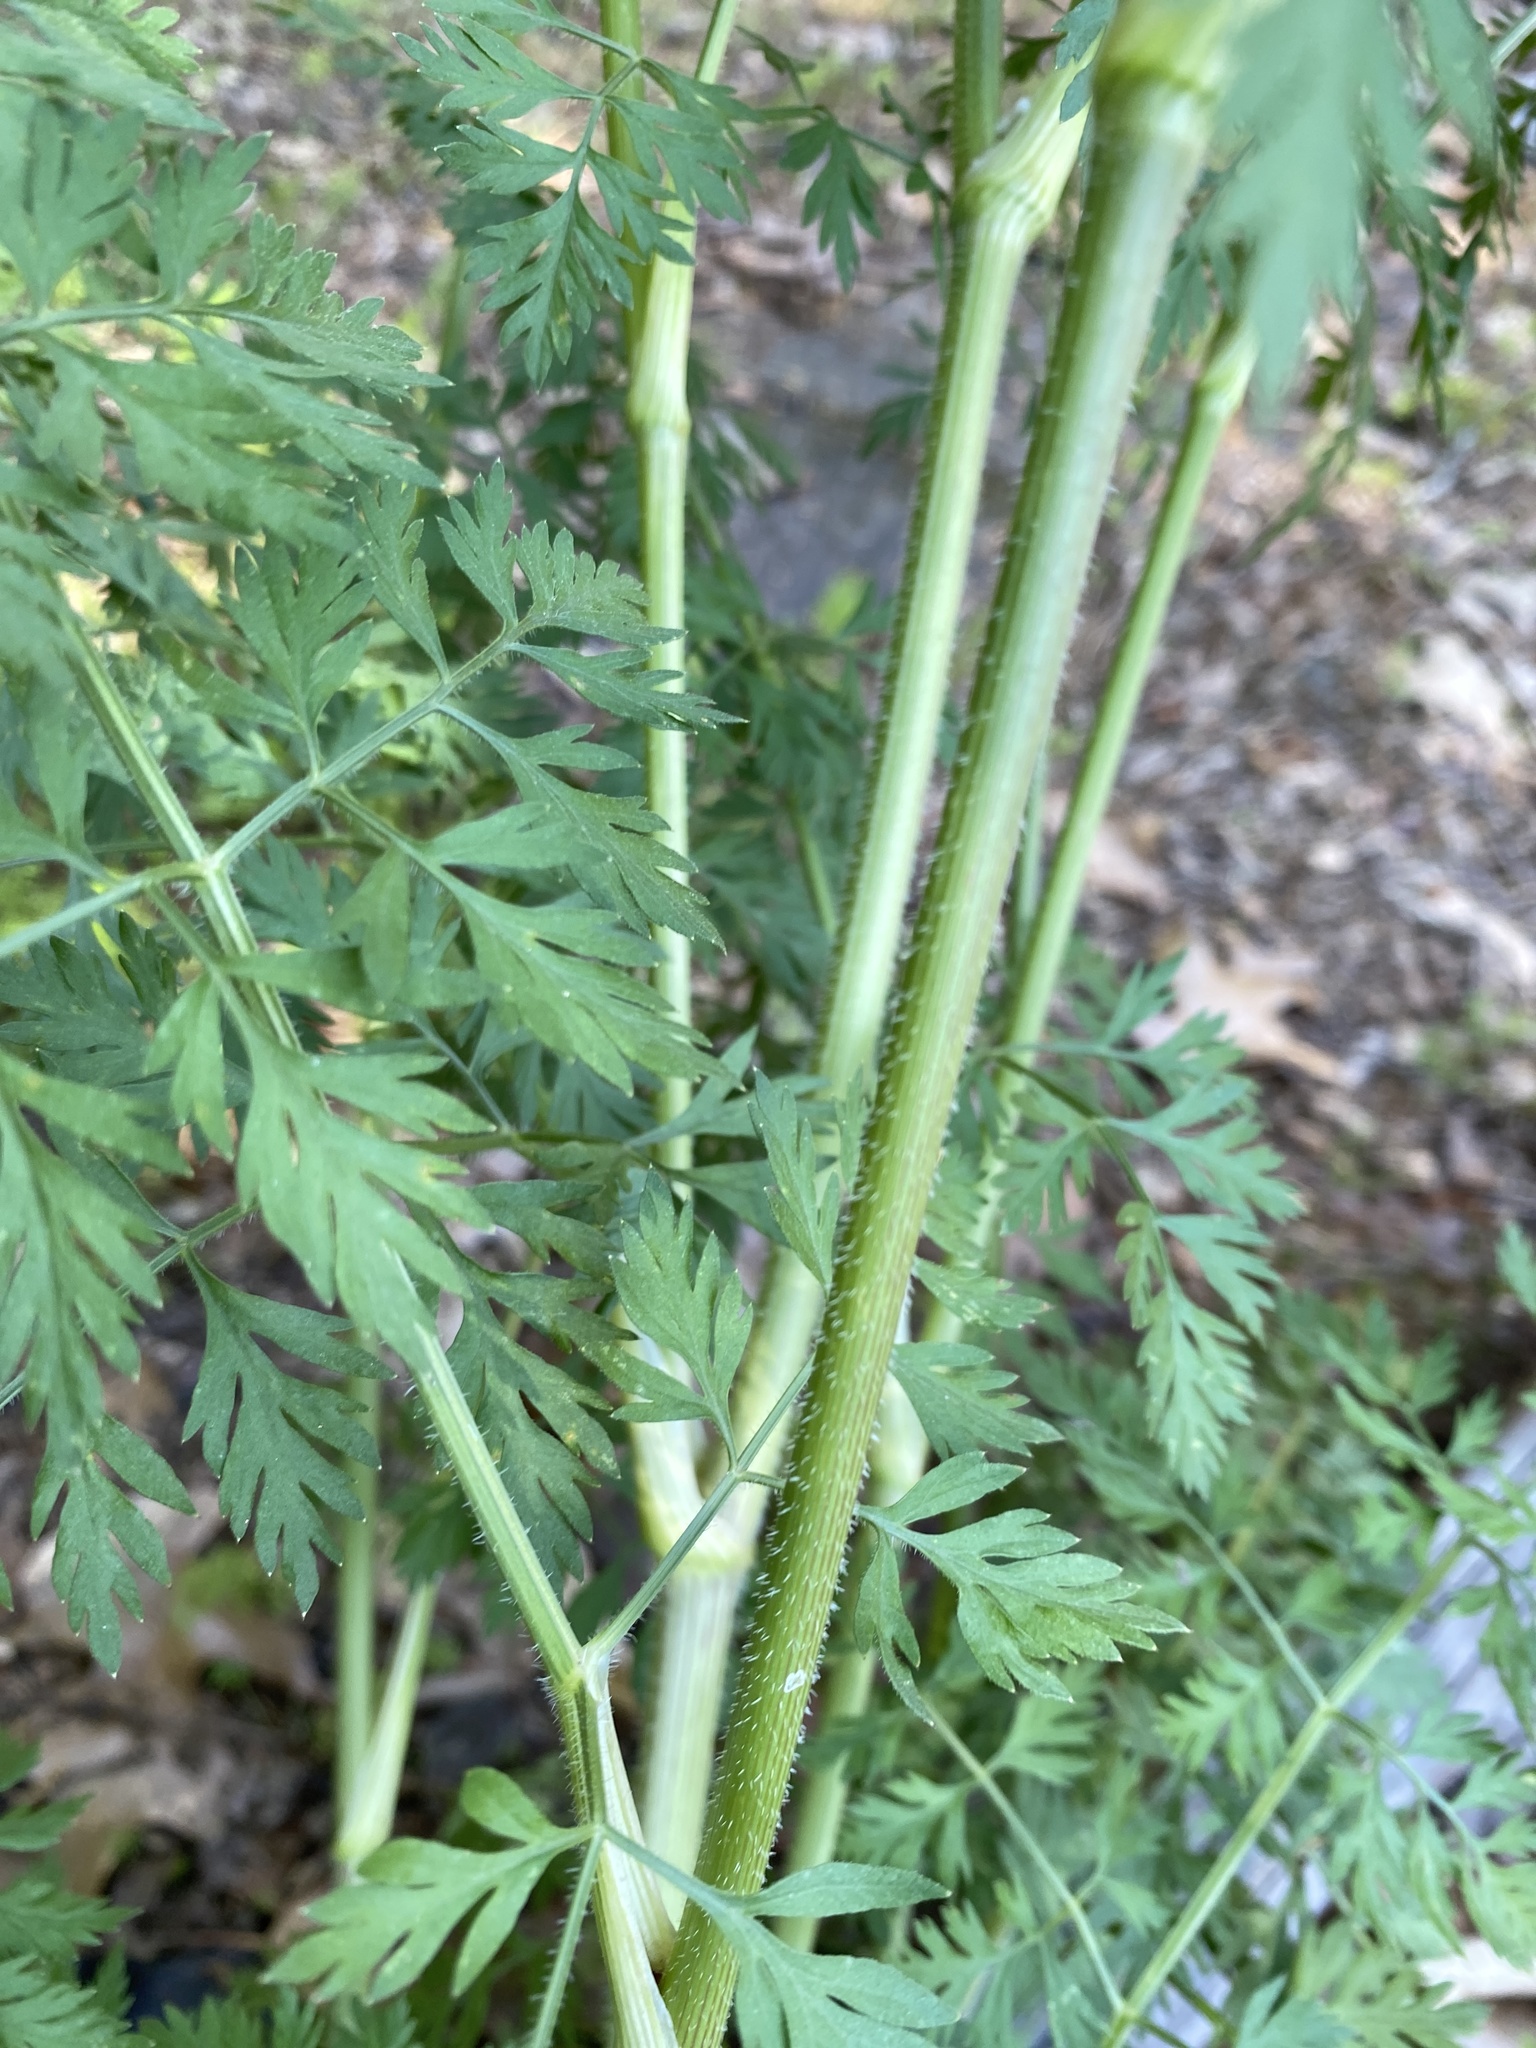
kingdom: Plantae
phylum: Tracheophyta
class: Magnoliopsida
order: Apiales
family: Apiaceae
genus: Daucus
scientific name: Daucus carota
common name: Wild carrot
